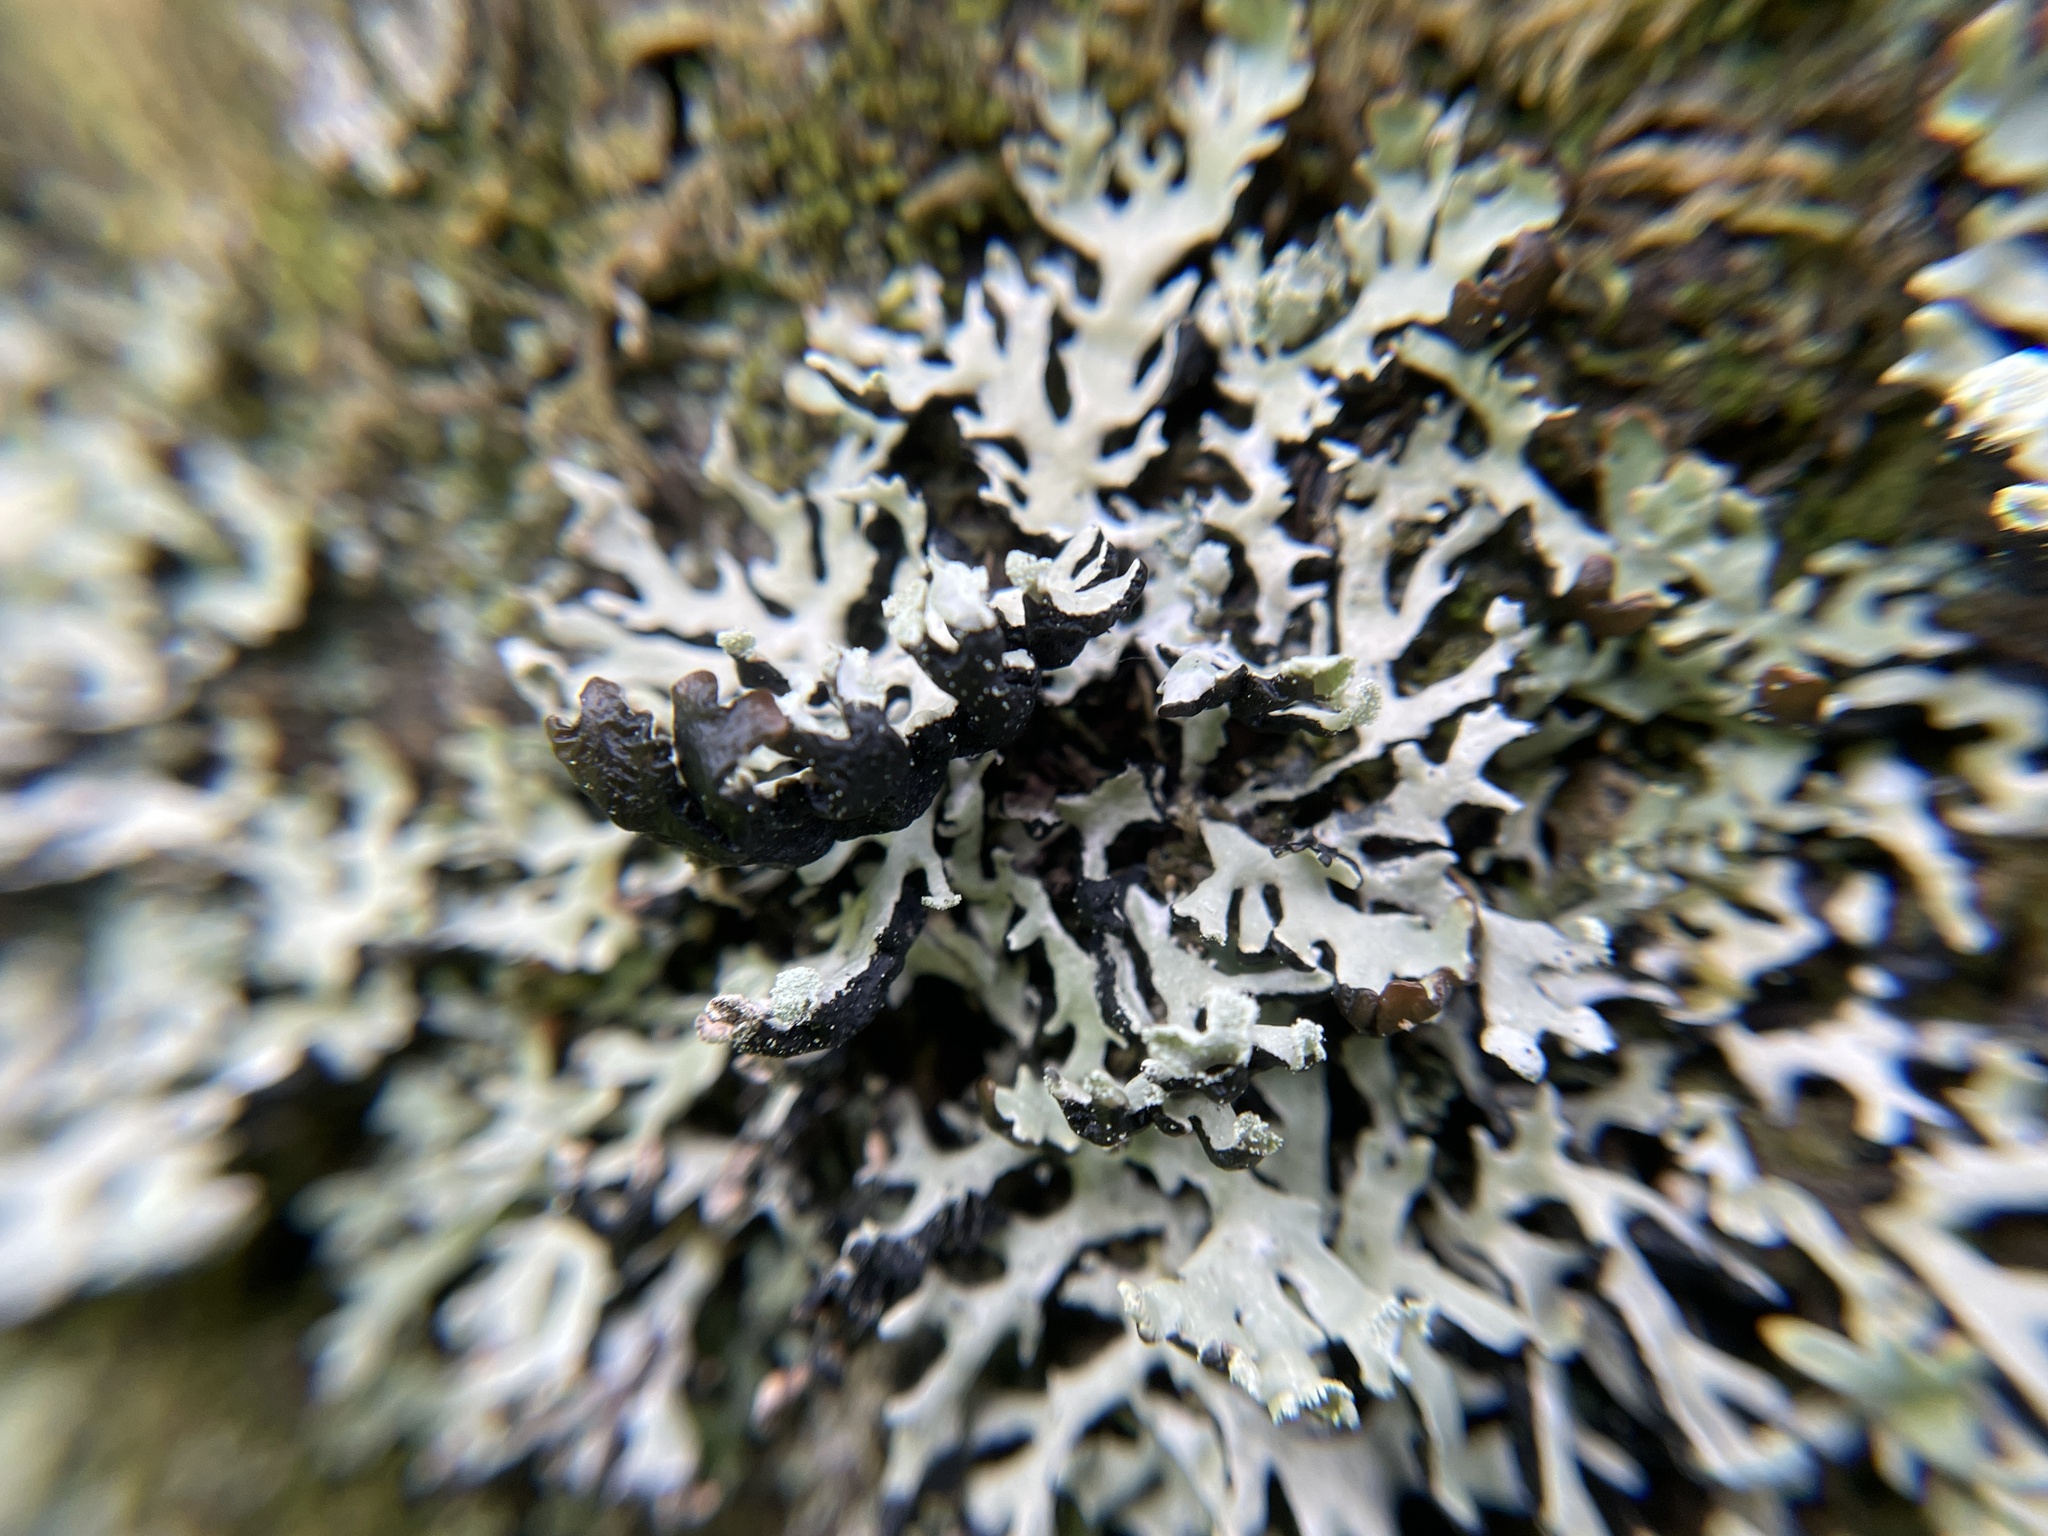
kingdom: Fungi
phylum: Ascomycota
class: Lecanoromycetes
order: Lecanorales
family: Parmeliaceae
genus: Hypogymnia
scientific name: Hypogymnia physodes
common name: Dark crottle
